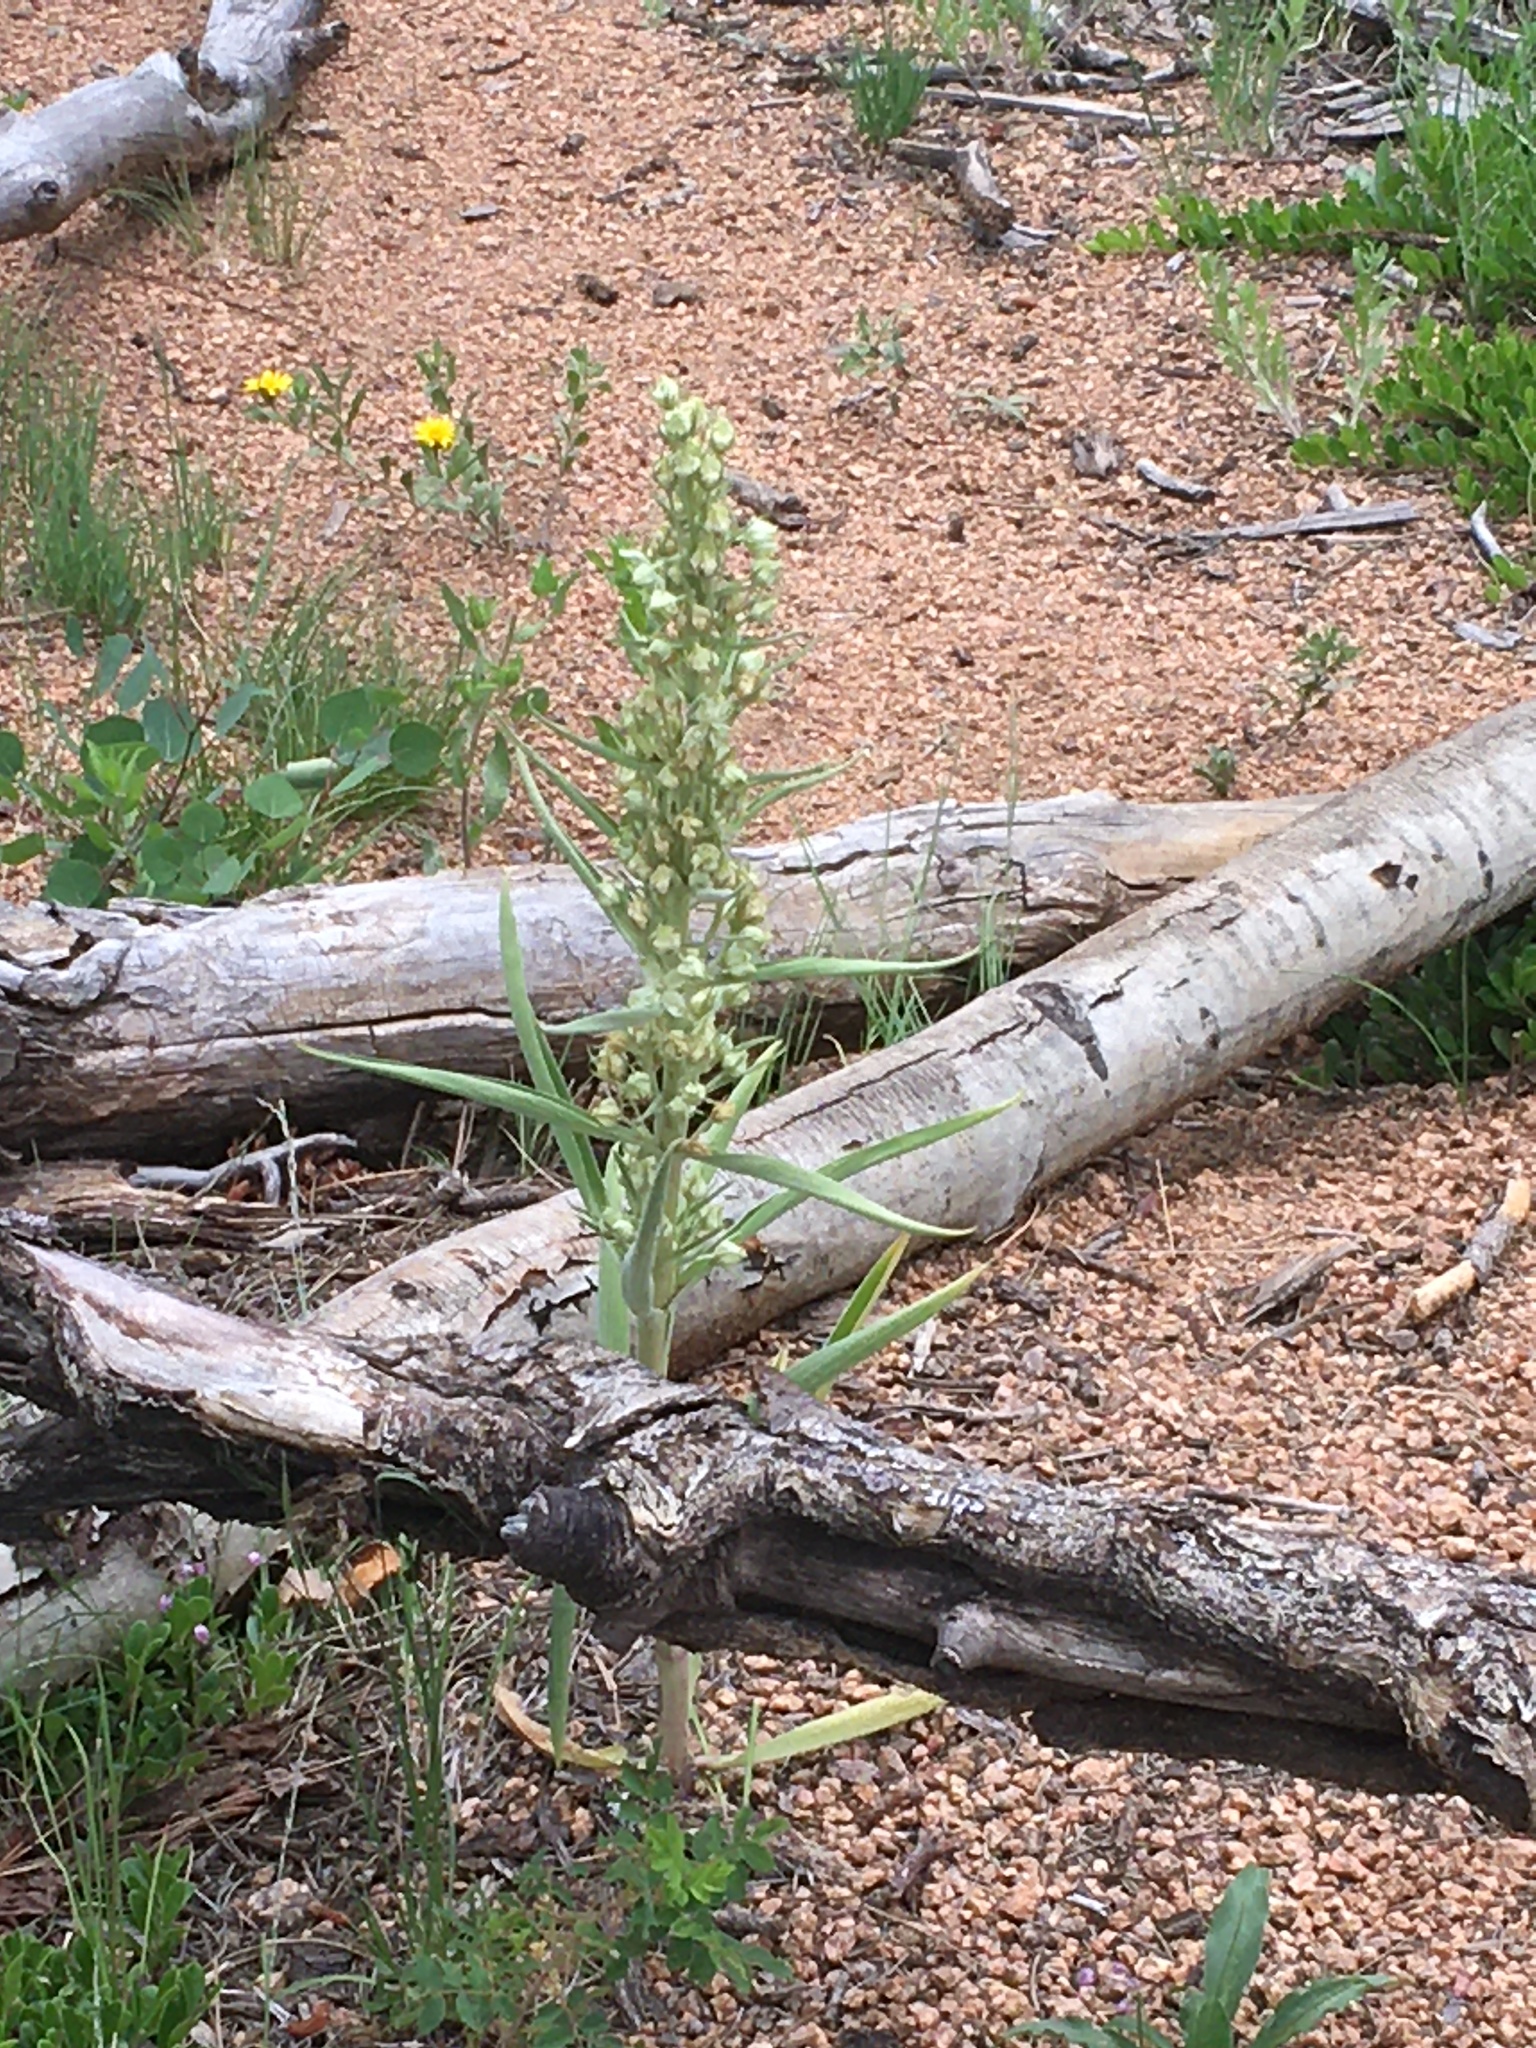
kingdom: Plantae
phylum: Tracheophyta
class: Magnoliopsida
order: Gentianales
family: Gentianaceae
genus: Frasera
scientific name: Frasera speciosa
